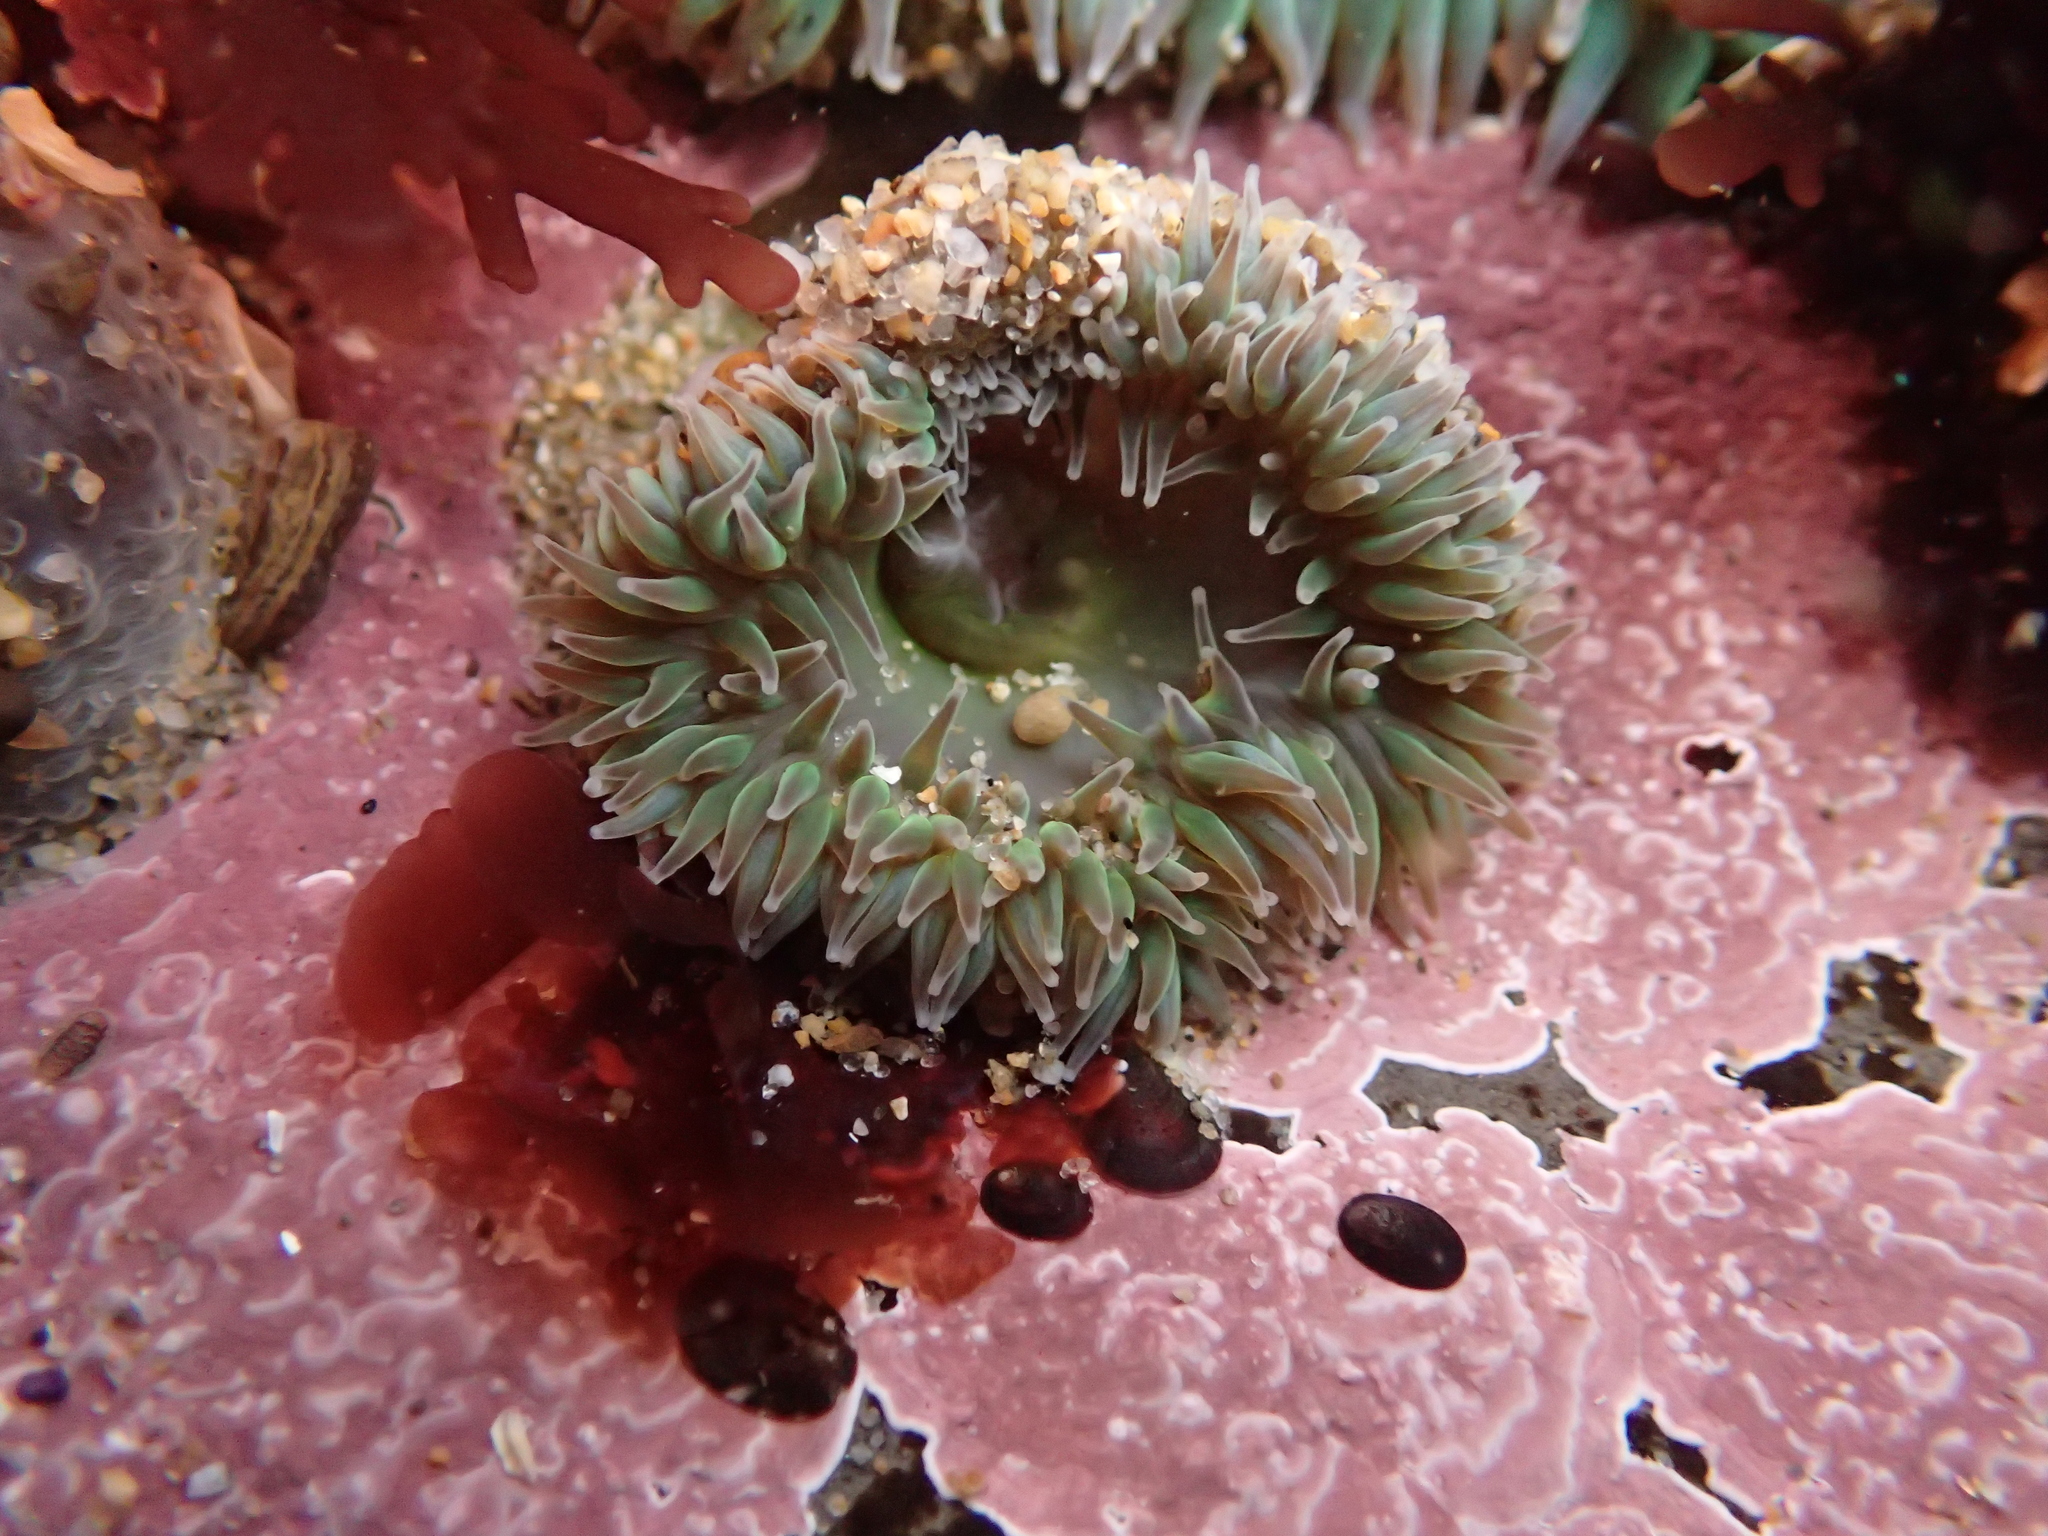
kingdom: Animalia
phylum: Cnidaria
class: Anthozoa
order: Actiniaria
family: Actiniidae
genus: Anthopleura
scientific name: Anthopleura xanthogrammica
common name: Giant green anemone
